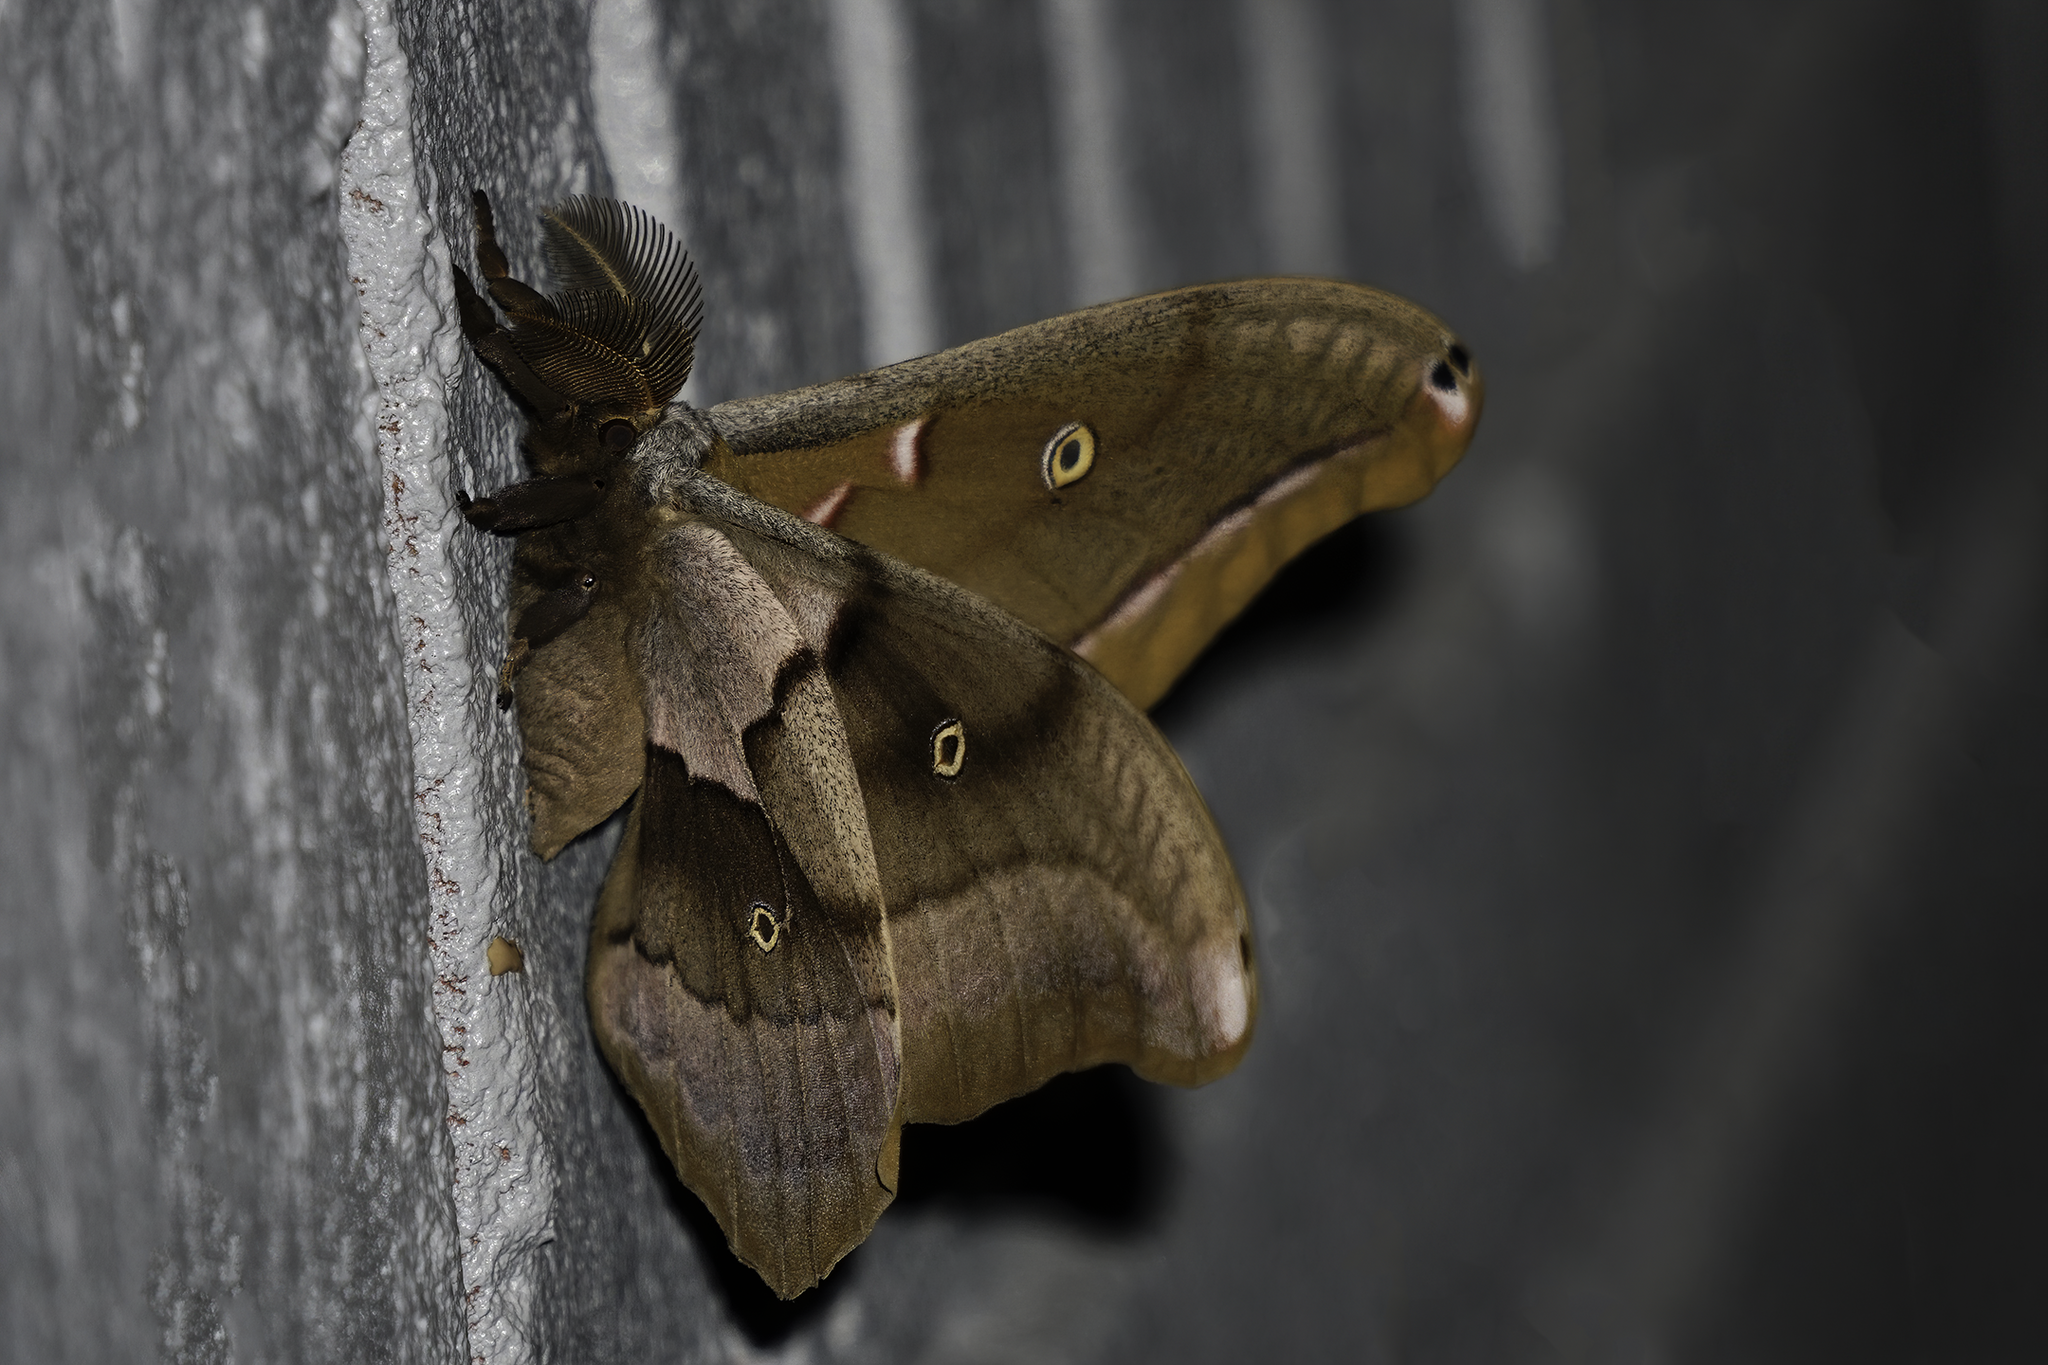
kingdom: Animalia
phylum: Arthropoda
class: Insecta
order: Lepidoptera
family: Saturniidae
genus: Antheraea
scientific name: Antheraea polyphemus
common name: Polyphemus moth
